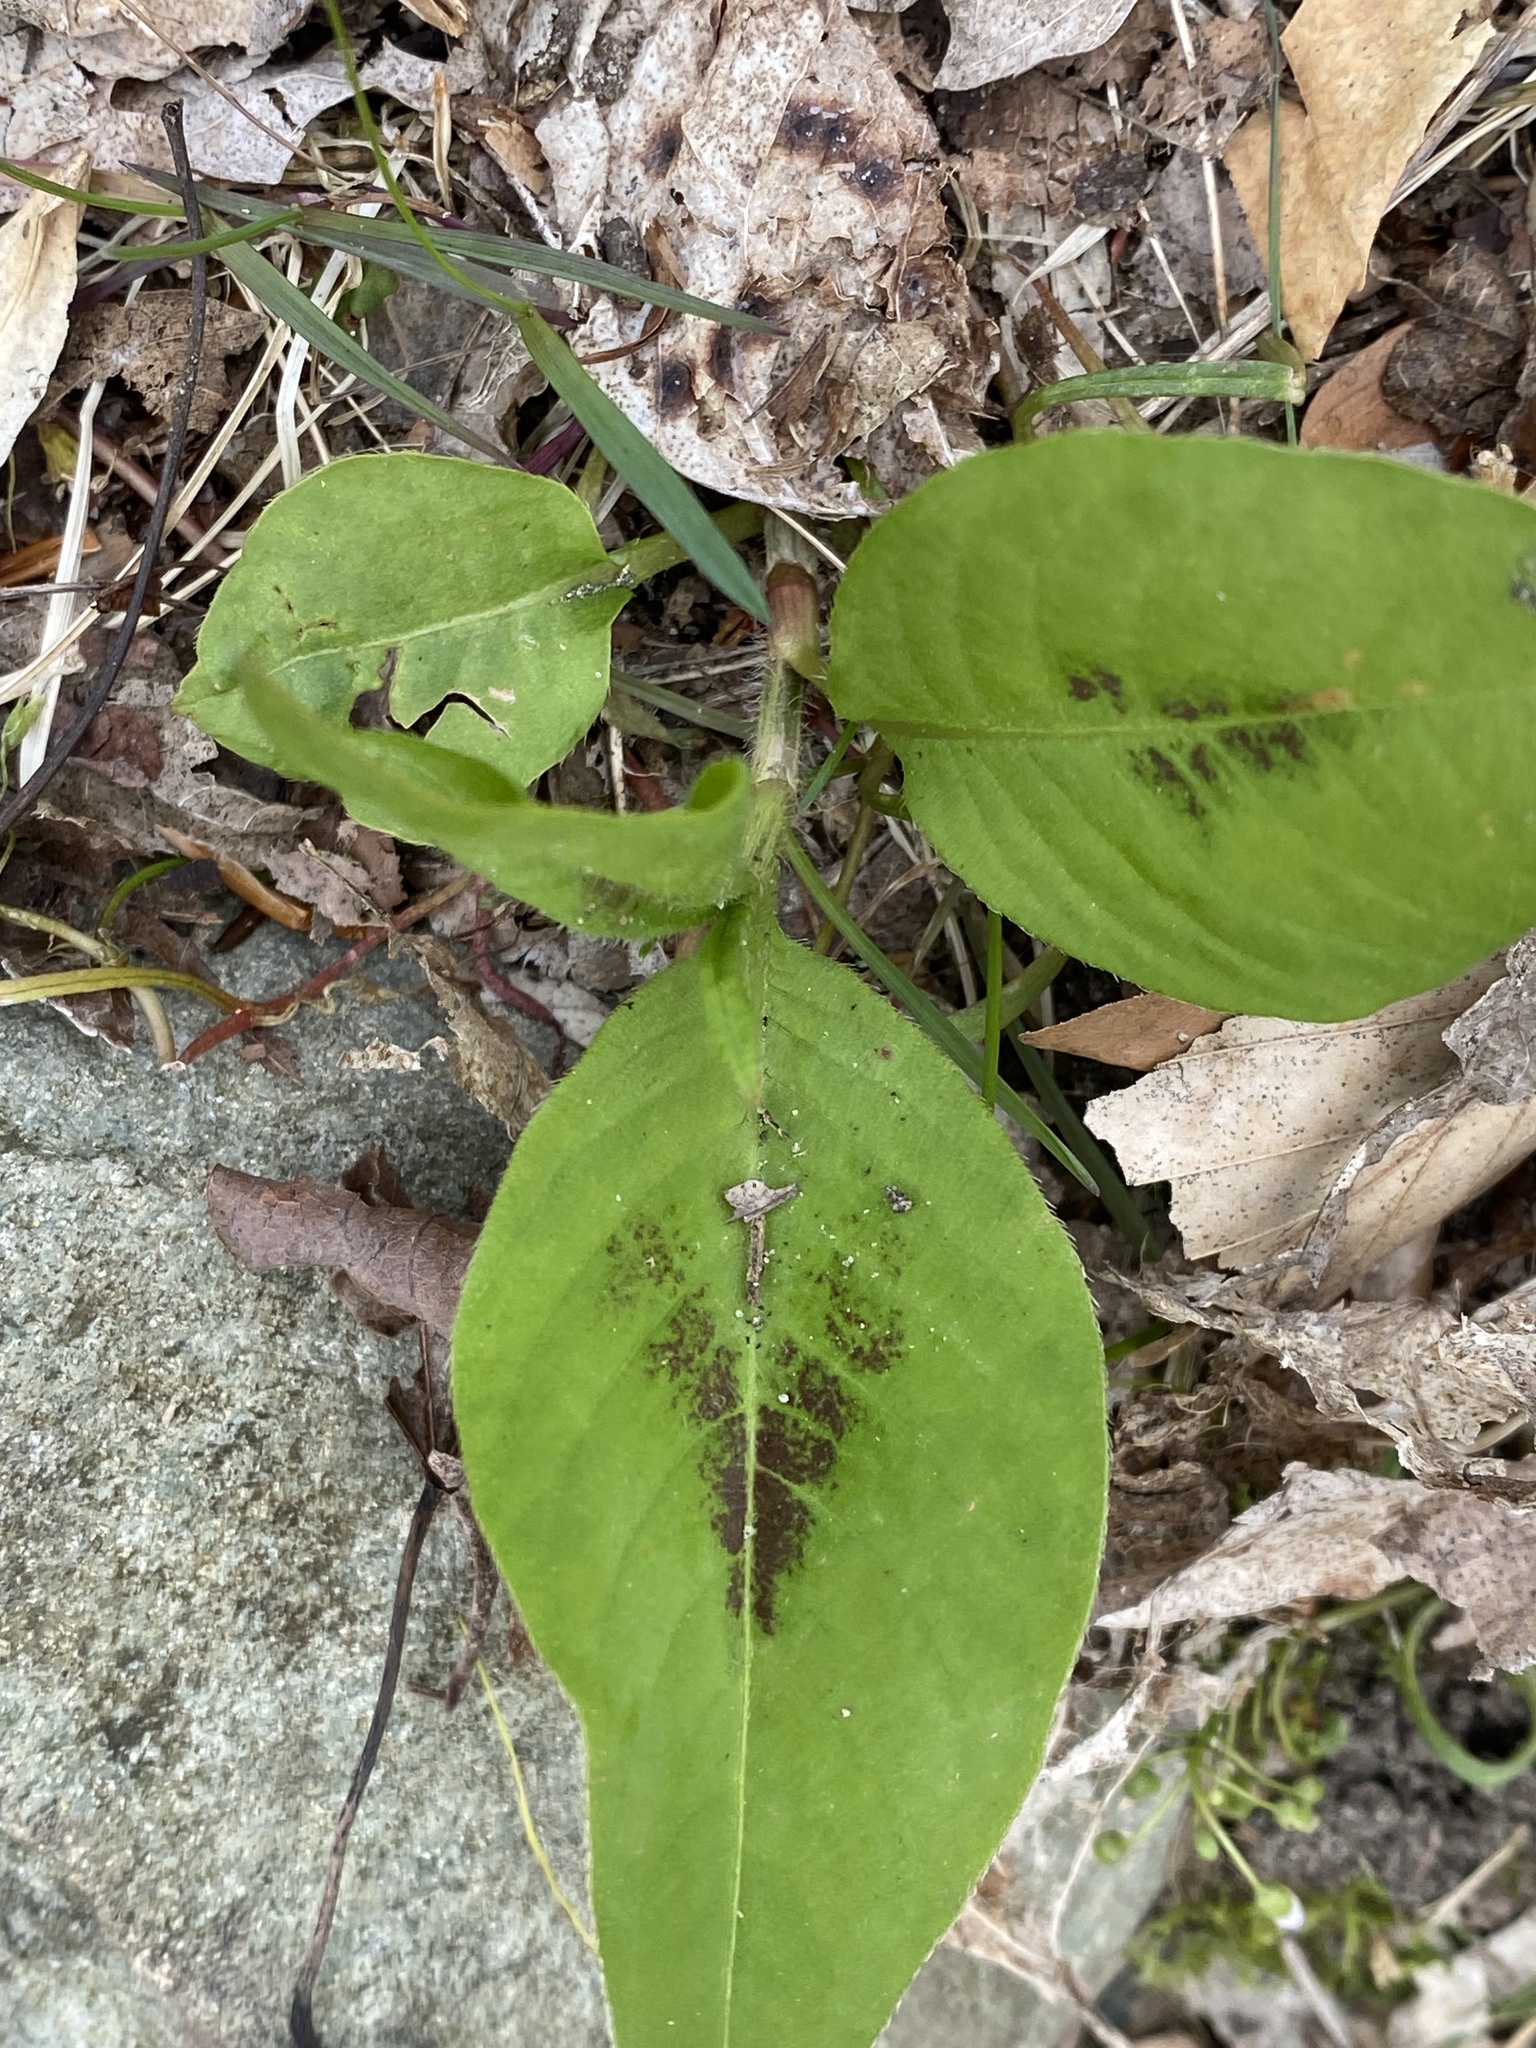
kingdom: Plantae
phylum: Tracheophyta
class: Magnoliopsida
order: Caryophyllales
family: Polygonaceae
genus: Persicaria
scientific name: Persicaria virginiana
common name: Jumpseed
